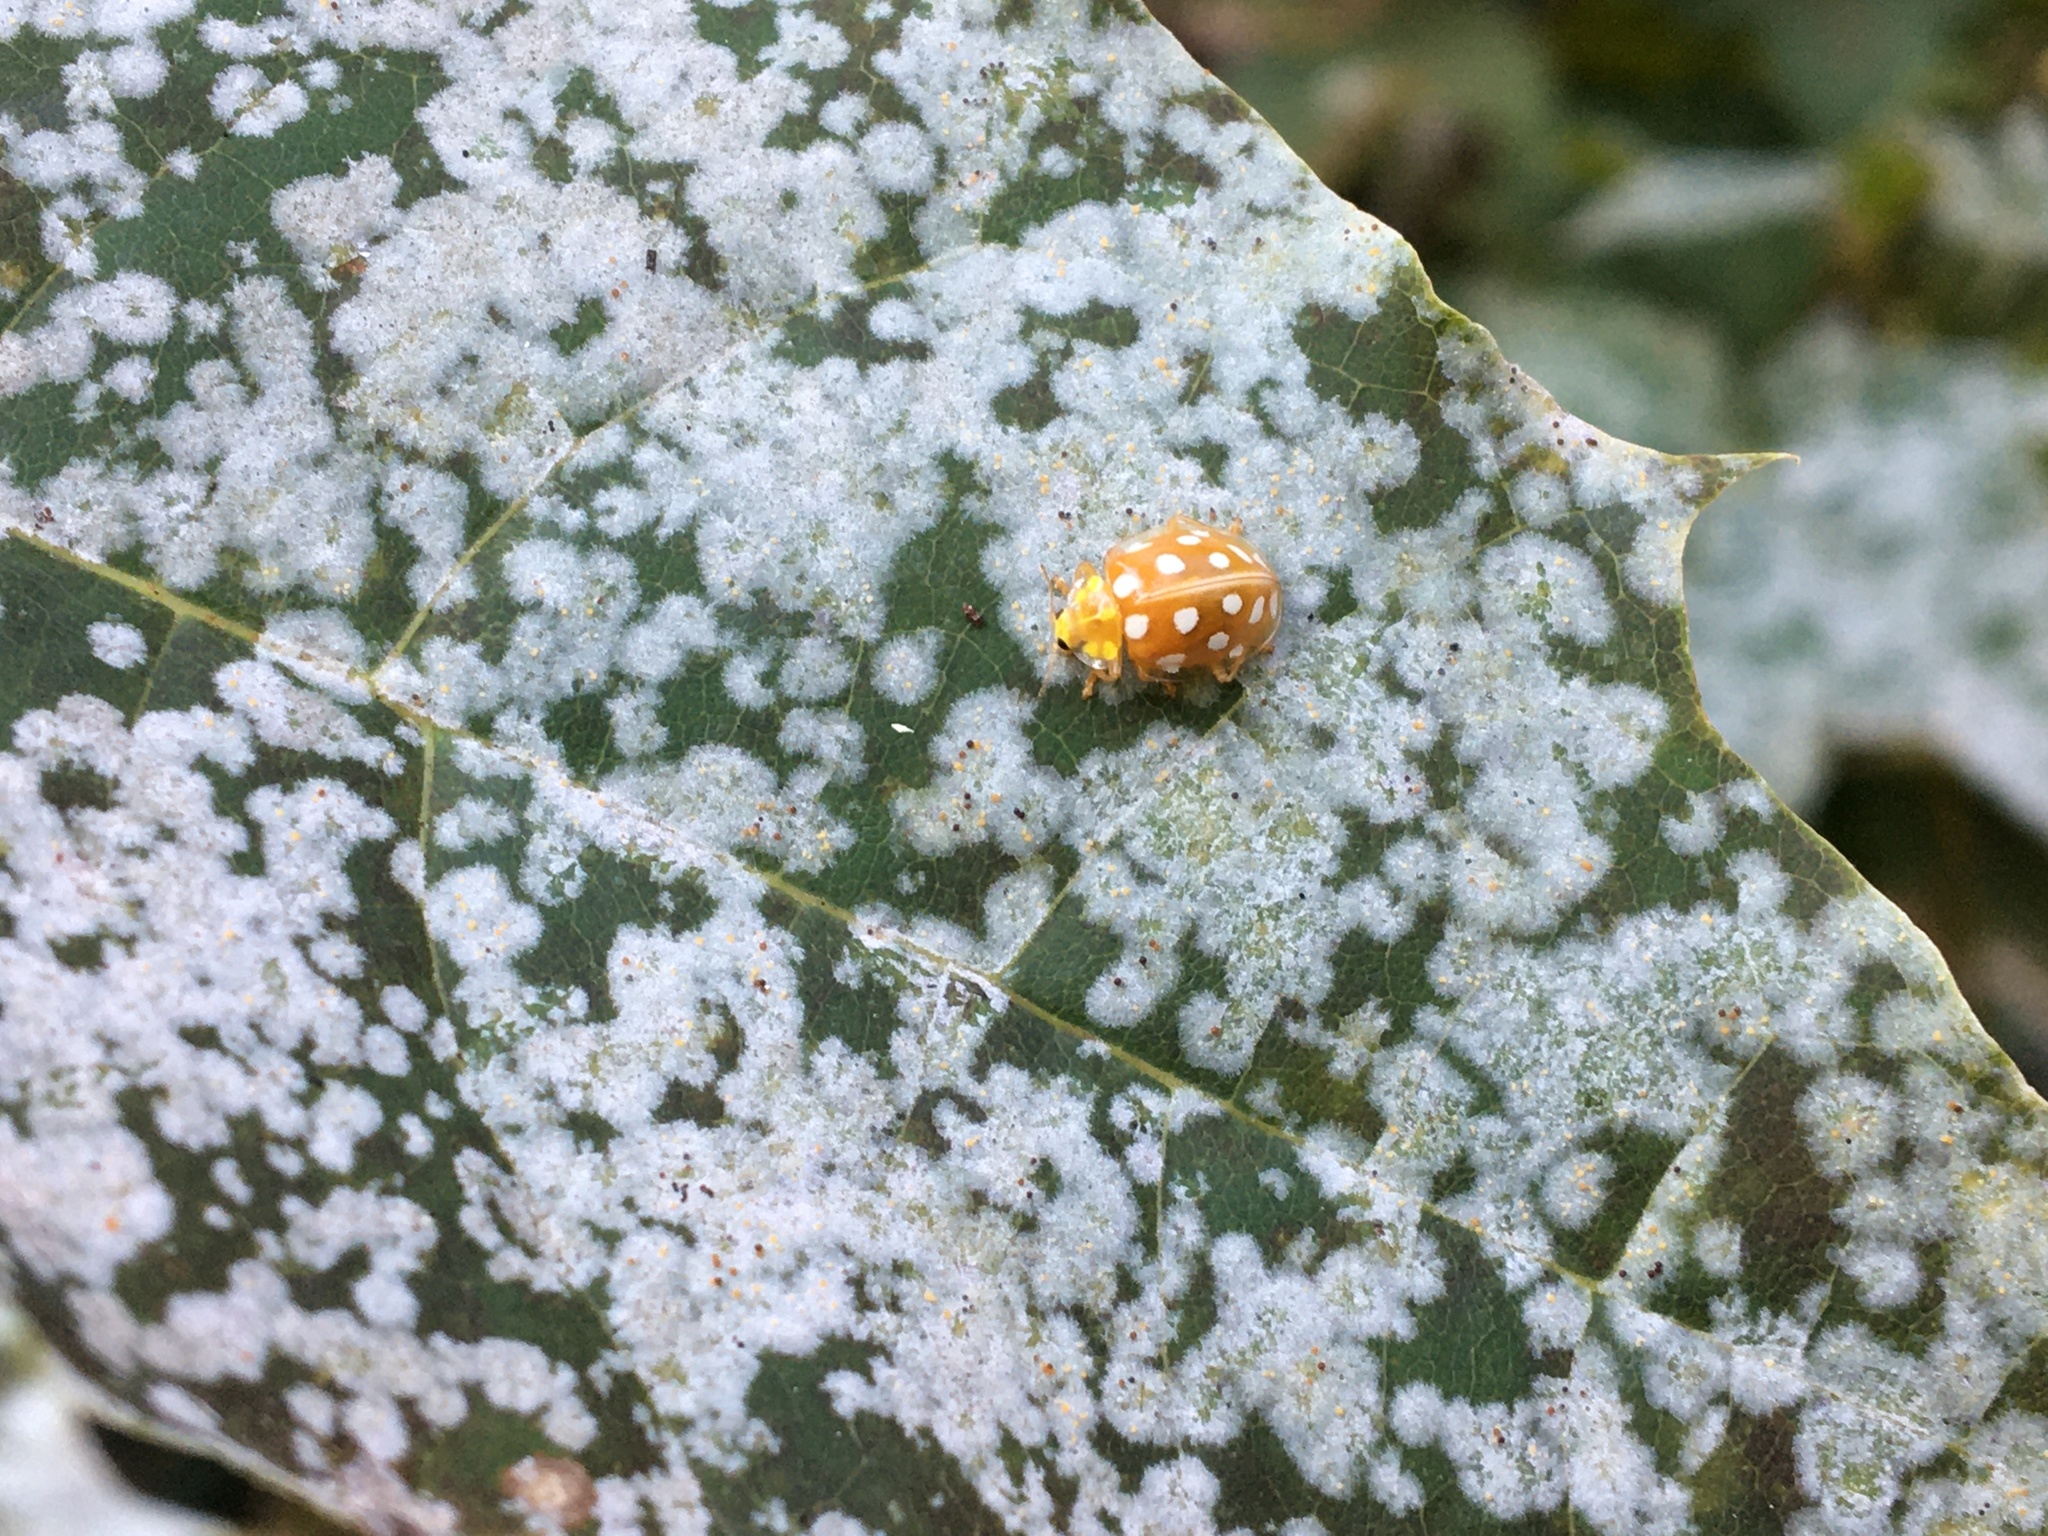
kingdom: Animalia
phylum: Arthropoda
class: Insecta
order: Coleoptera
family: Coccinellidae
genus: Halyzia
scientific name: Halyzia sedecimguttata
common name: Orange ladybird
